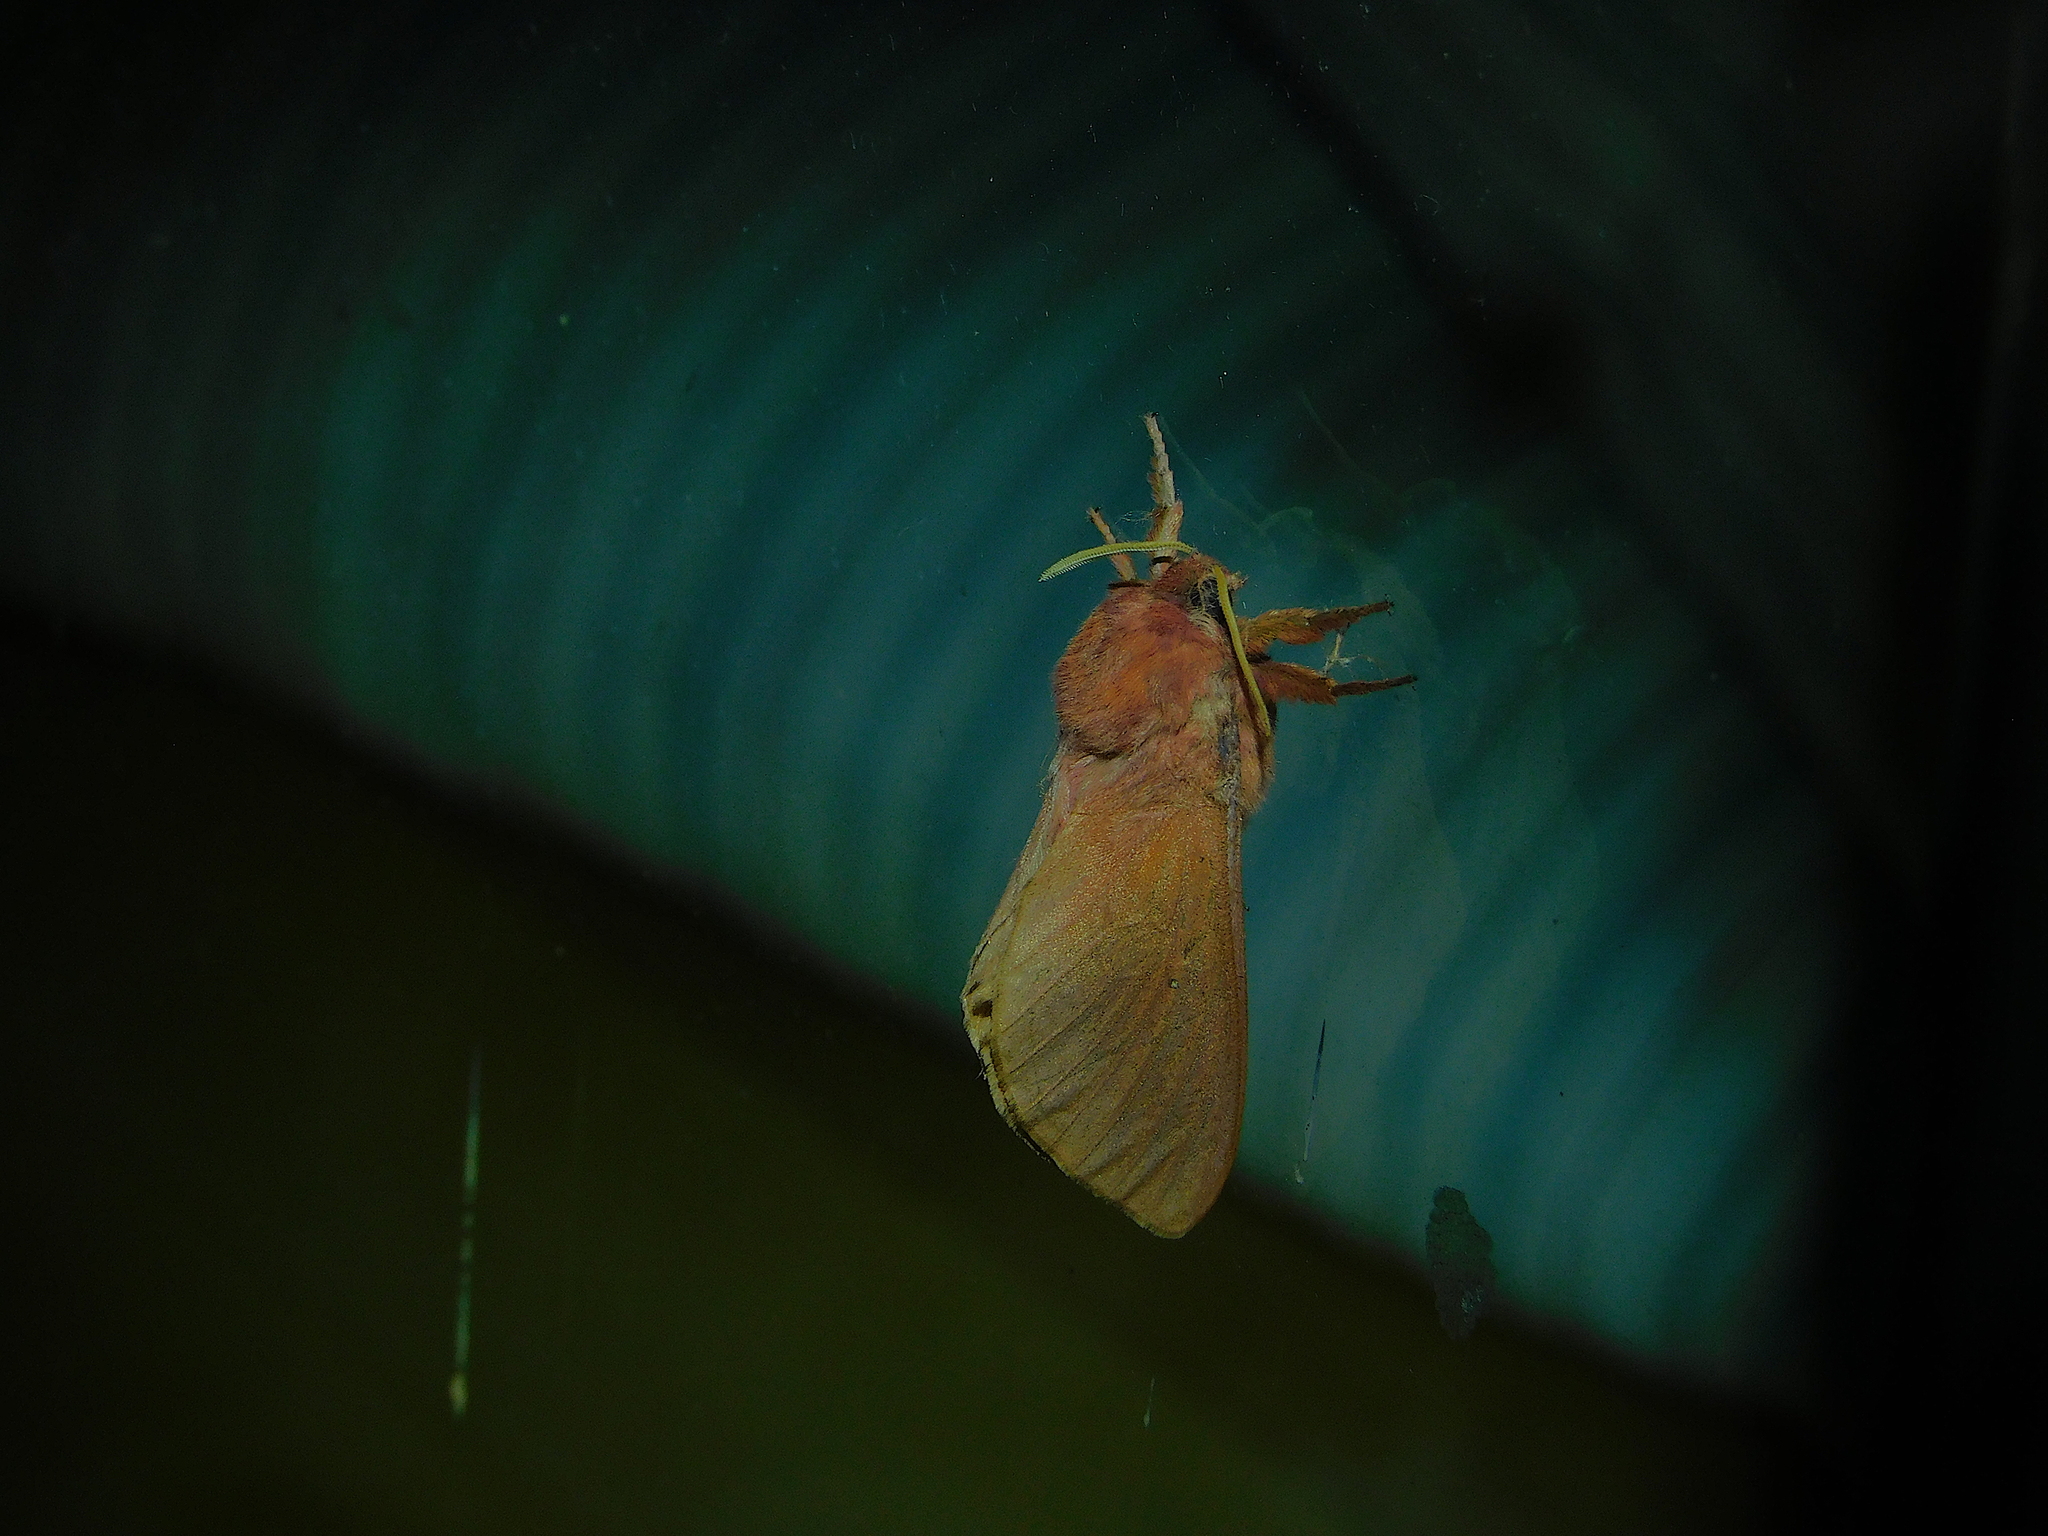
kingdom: Animalia
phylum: Arthropoda
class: Insecta
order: Lepidoptera
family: Hepialidae
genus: Oxycanus
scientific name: Oxycanus rufescens
